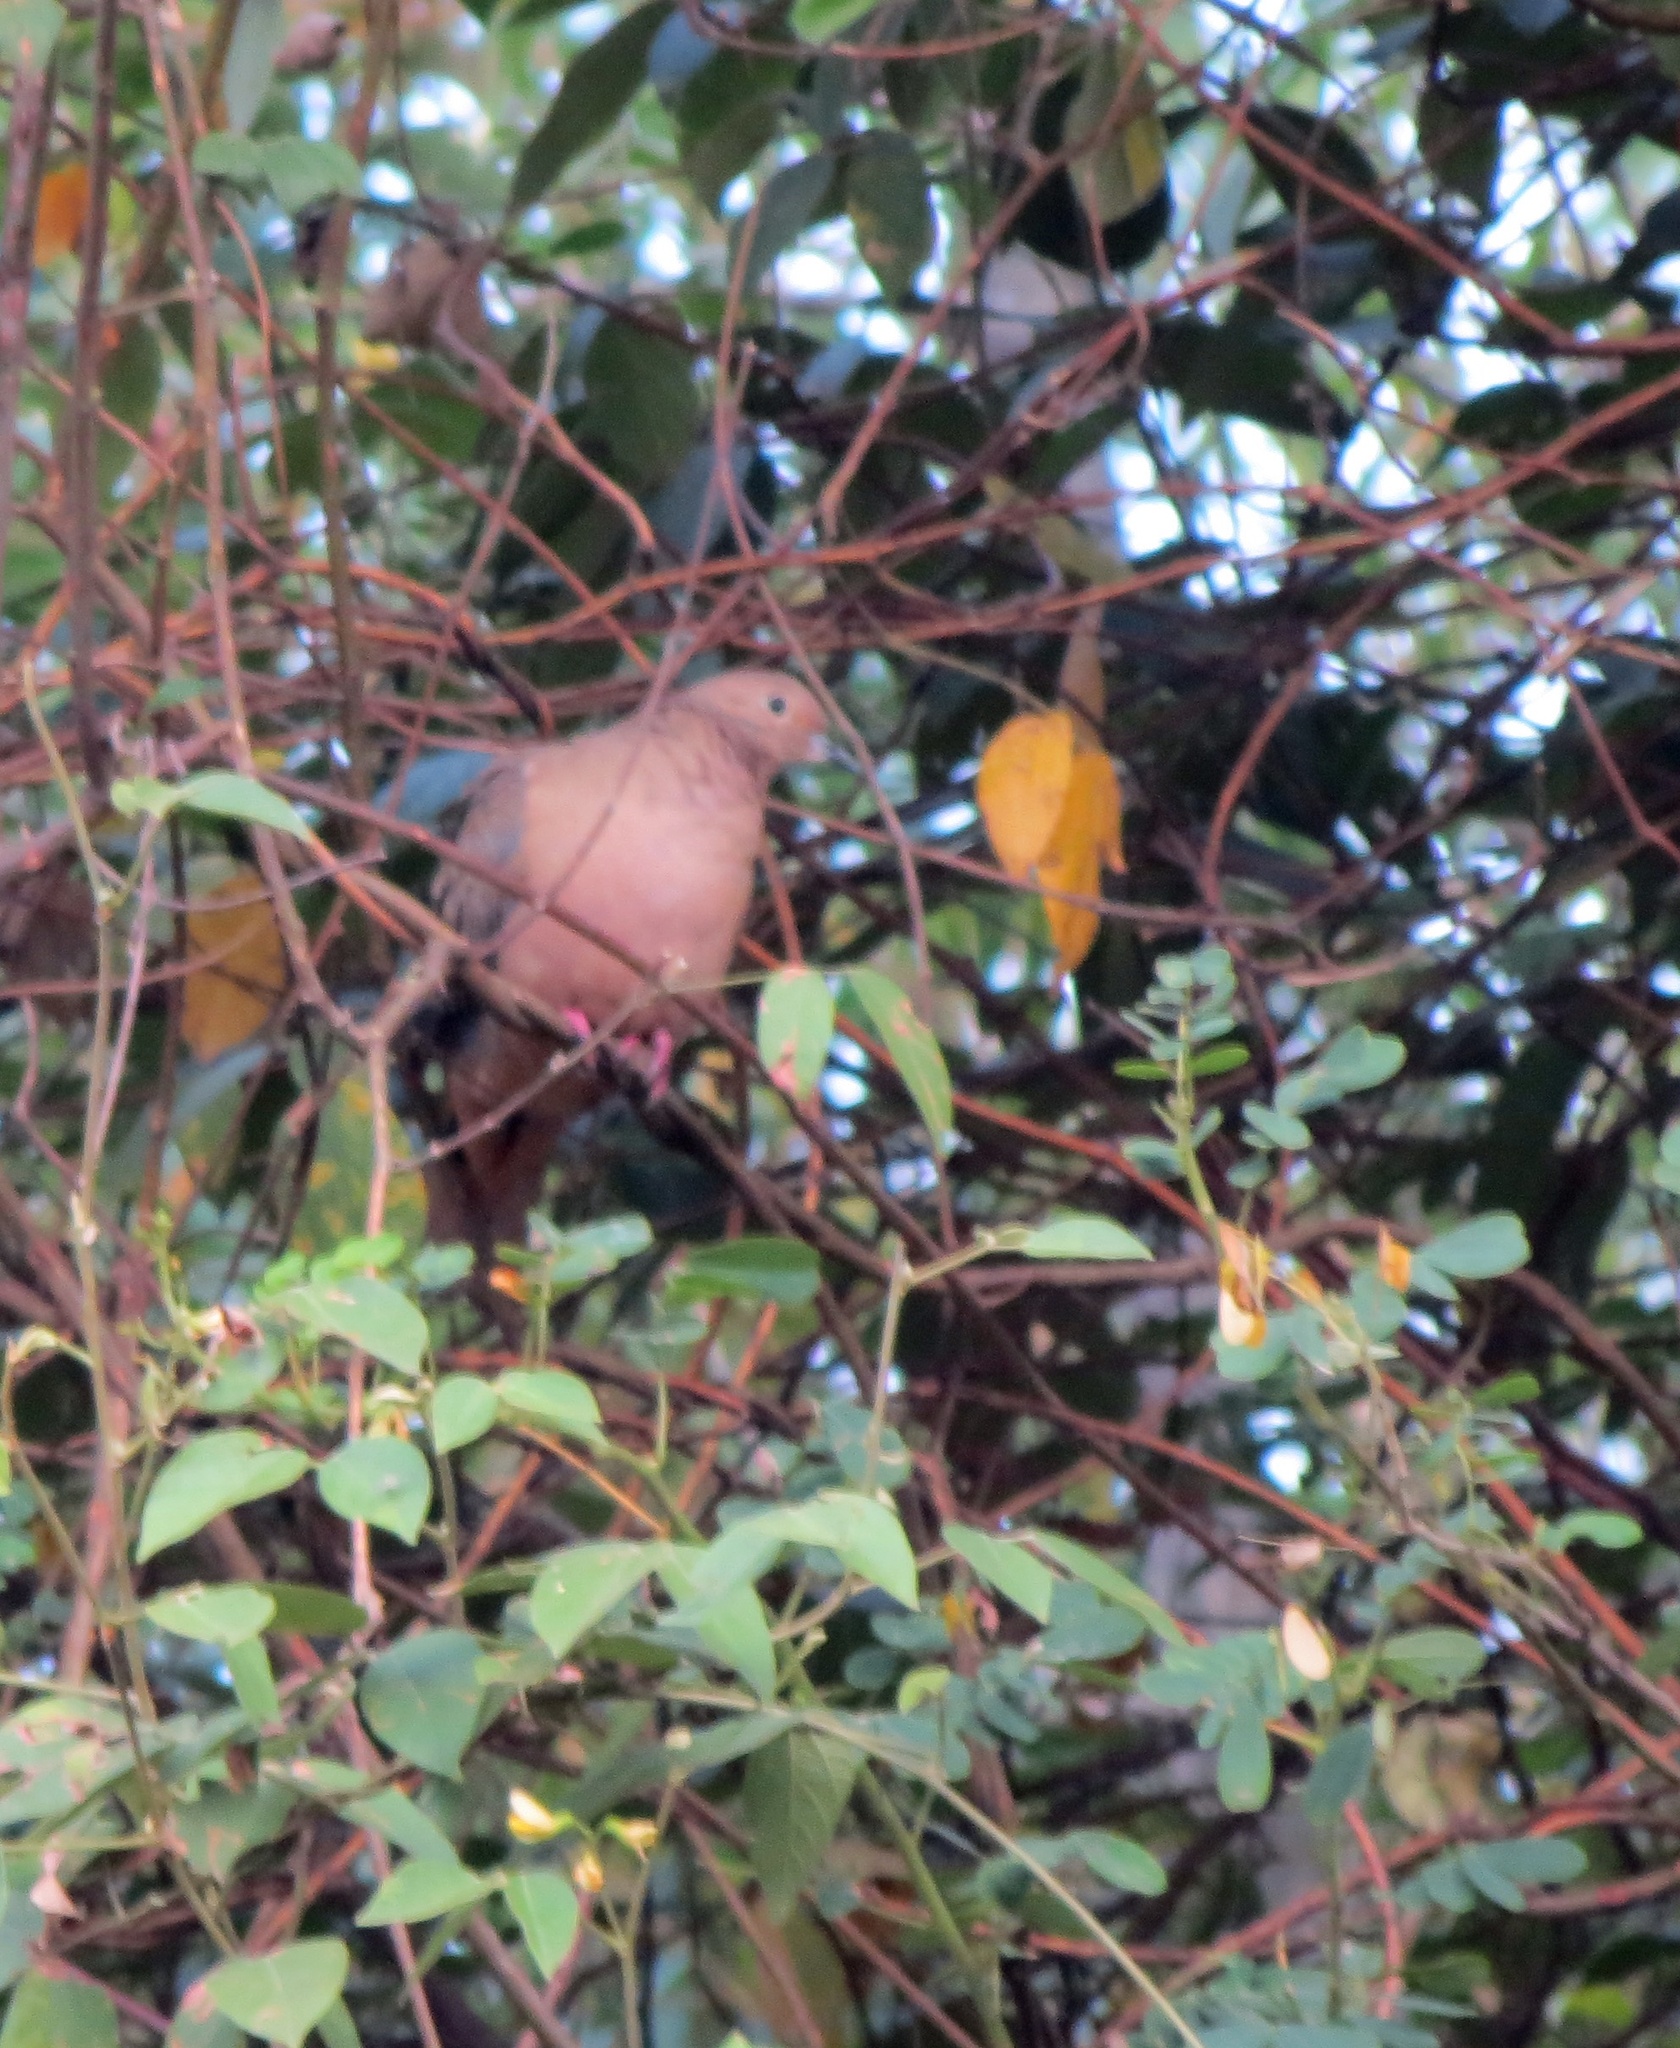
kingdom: Animalia
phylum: Chordata
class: Aves
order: Columbiformes
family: Columbidae
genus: Zenaida
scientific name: Zenaida auriculata
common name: Eared dove
